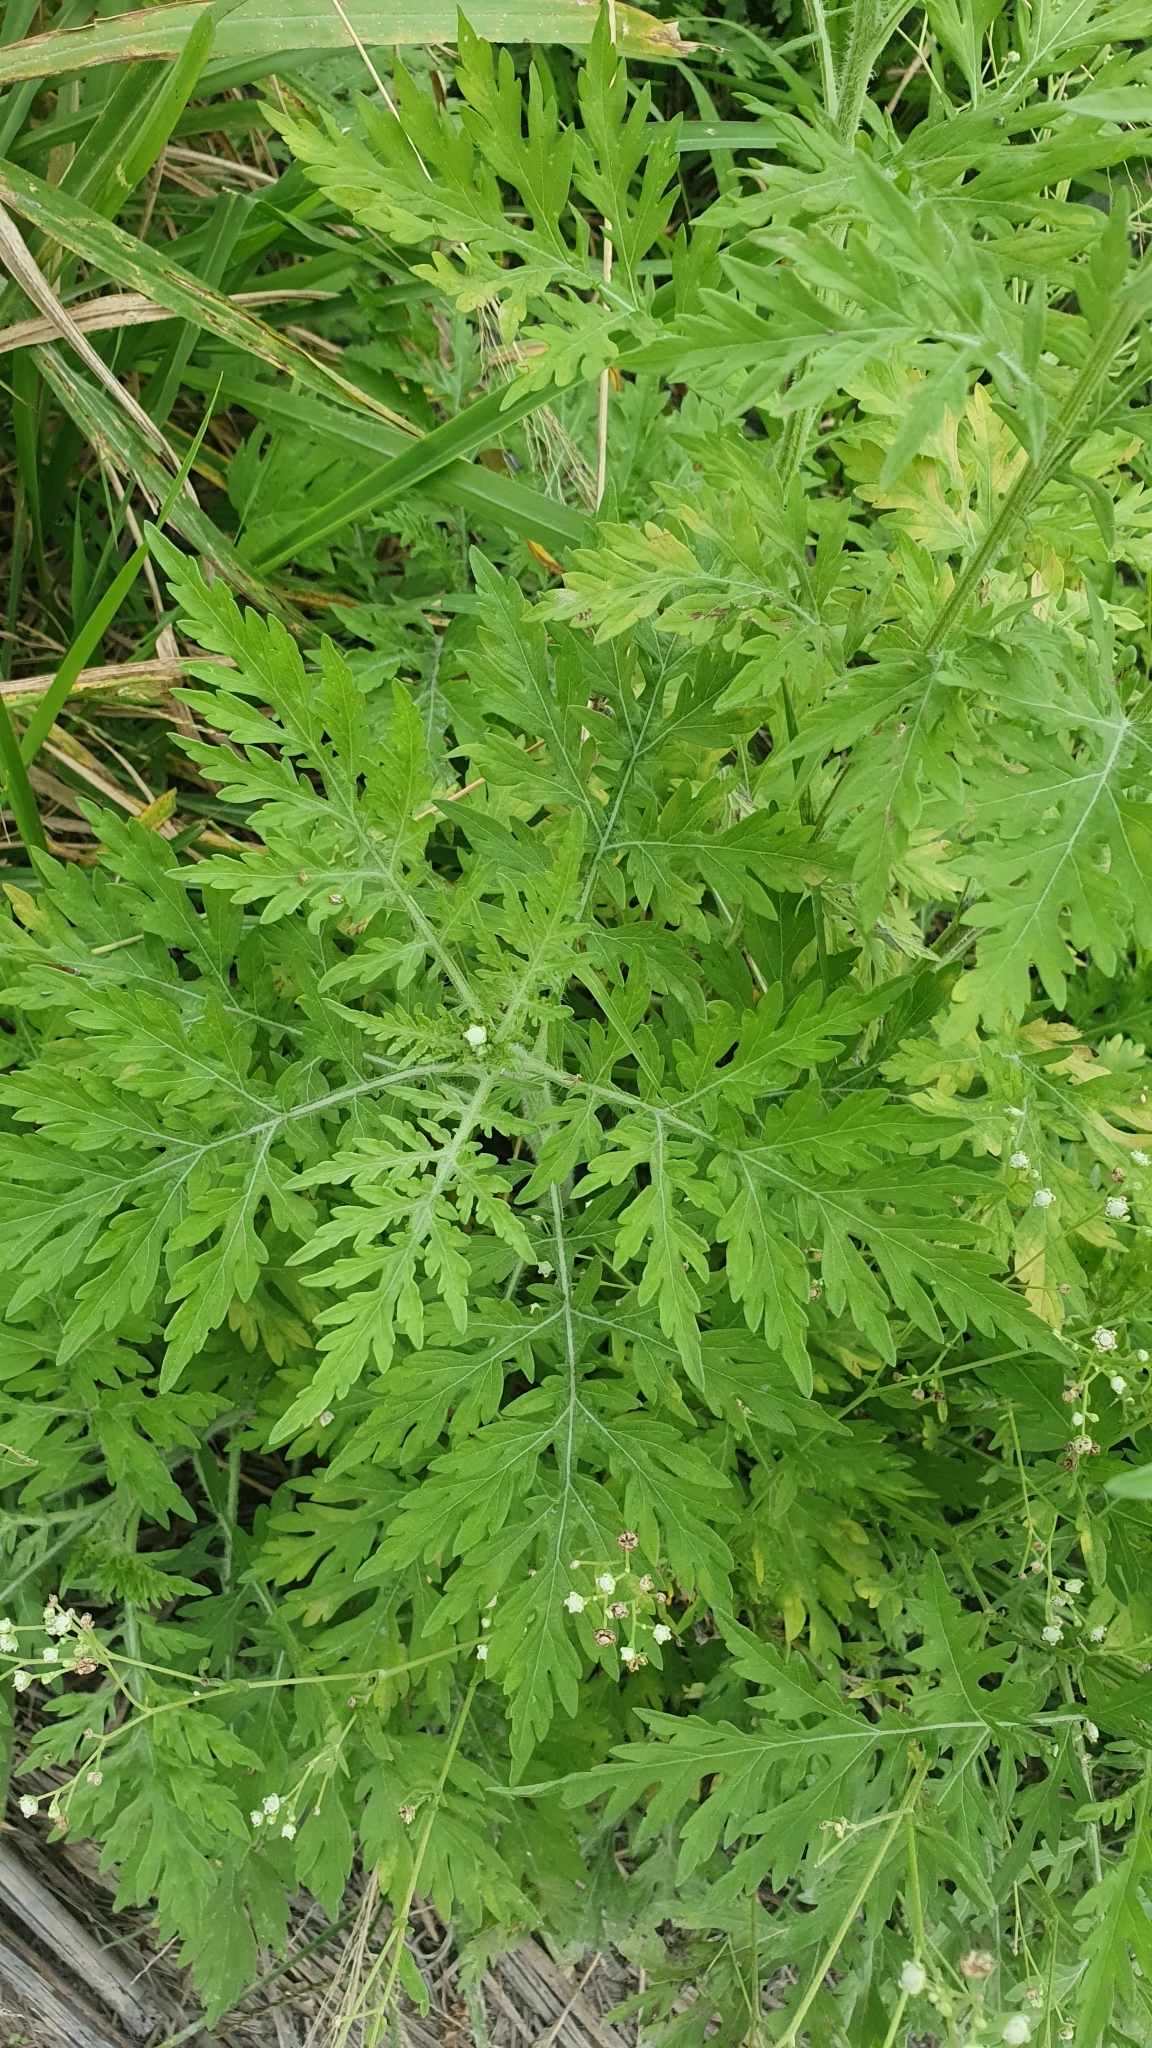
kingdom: Plantae
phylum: Tracheophyta
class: Magnoliopsida
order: Asterales
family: Asteraceae
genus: Parthenium
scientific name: Parthenium hysterophorus
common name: Santa maria feverfew
